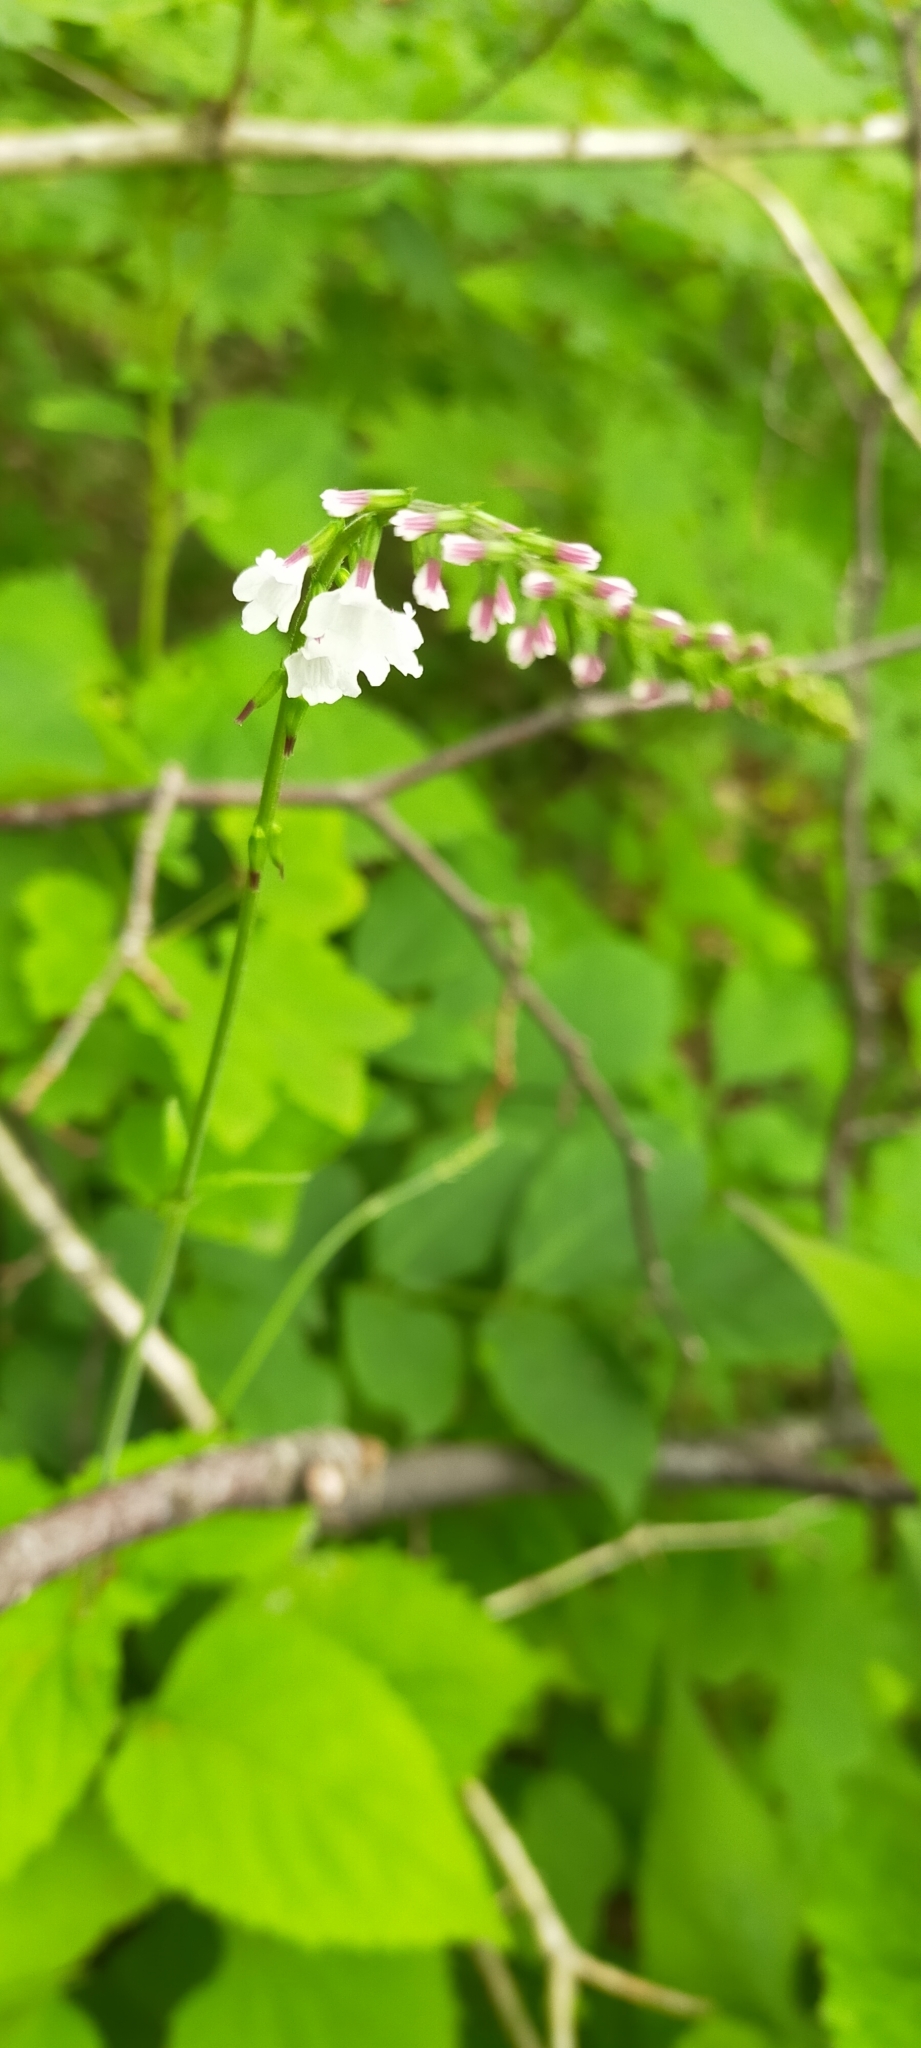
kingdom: Plantae
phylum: Tracheophyta
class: Magnoliopsida
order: Lamiales
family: Phrymaceae
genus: Phryma
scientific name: Phryma nana
